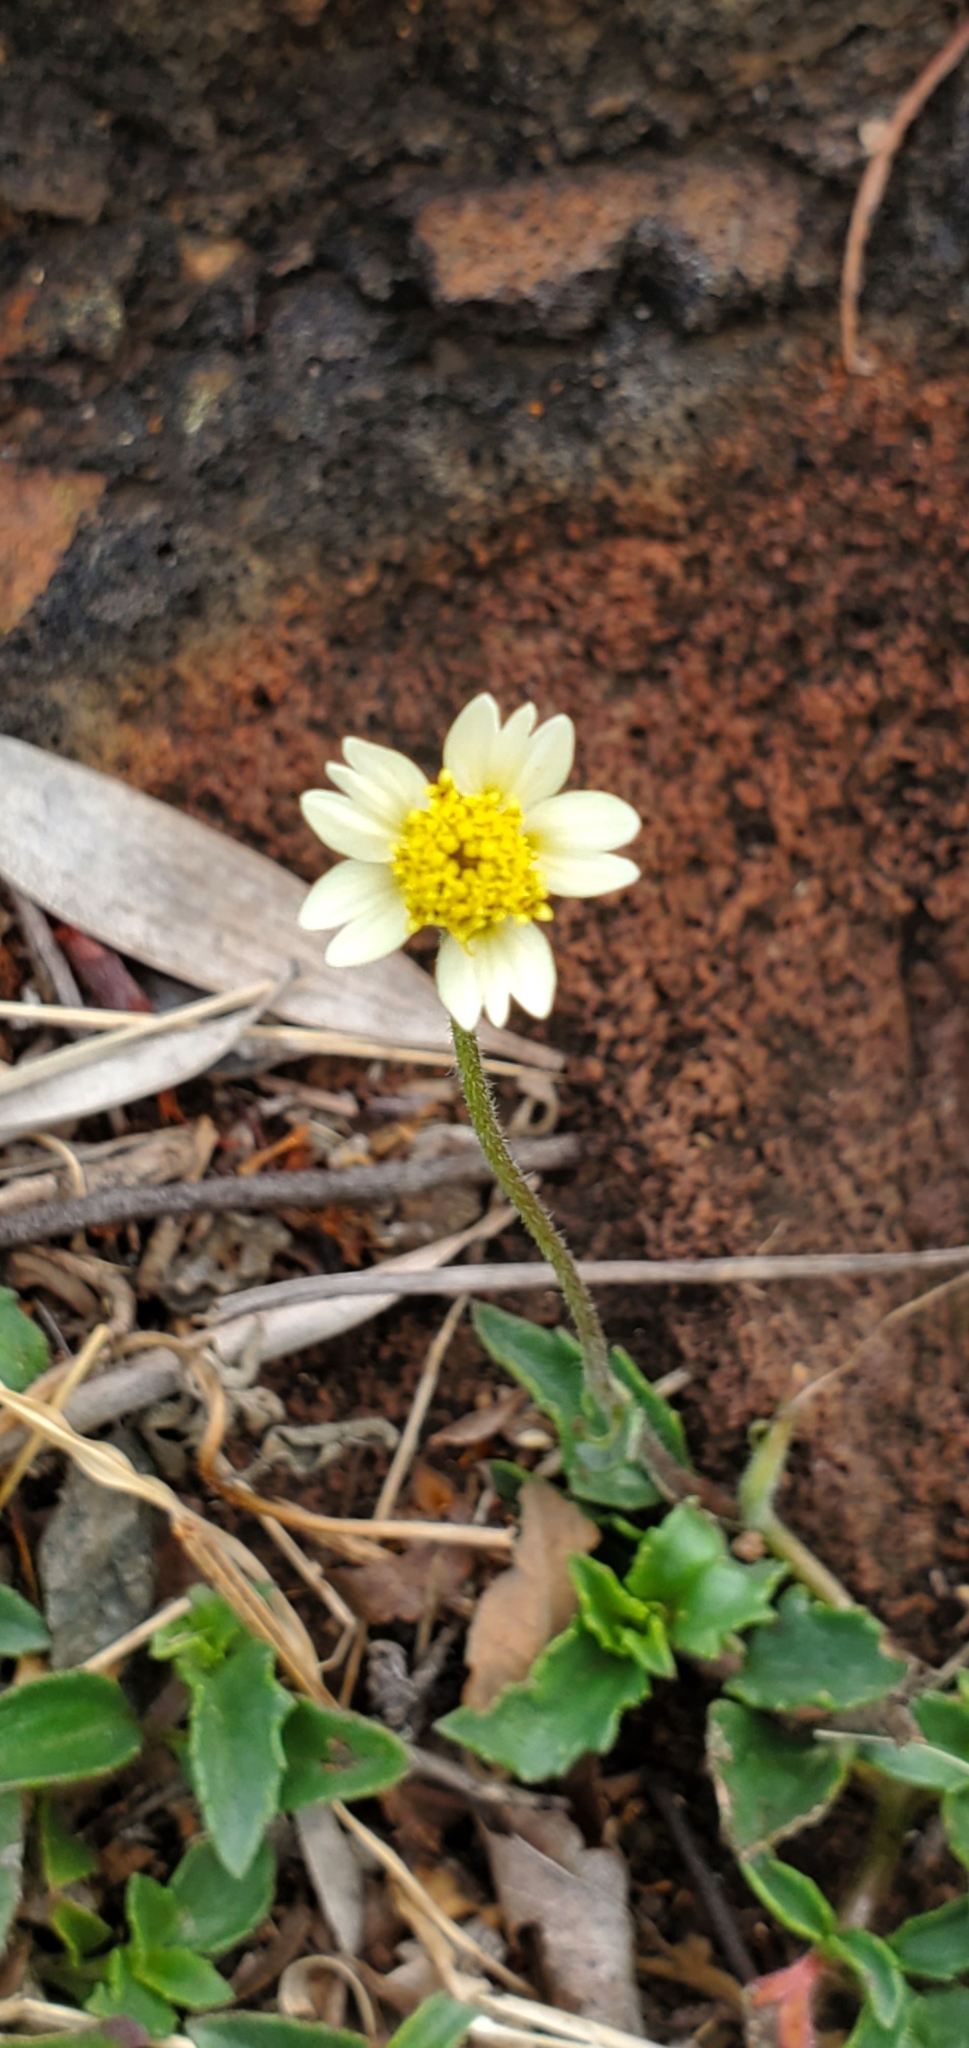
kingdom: Plantae
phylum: Tracheophyta
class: Magnoliopsida
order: Asterales
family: Asteraceae
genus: Tridax
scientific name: Tridax procumbens
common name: Coatbuttons
